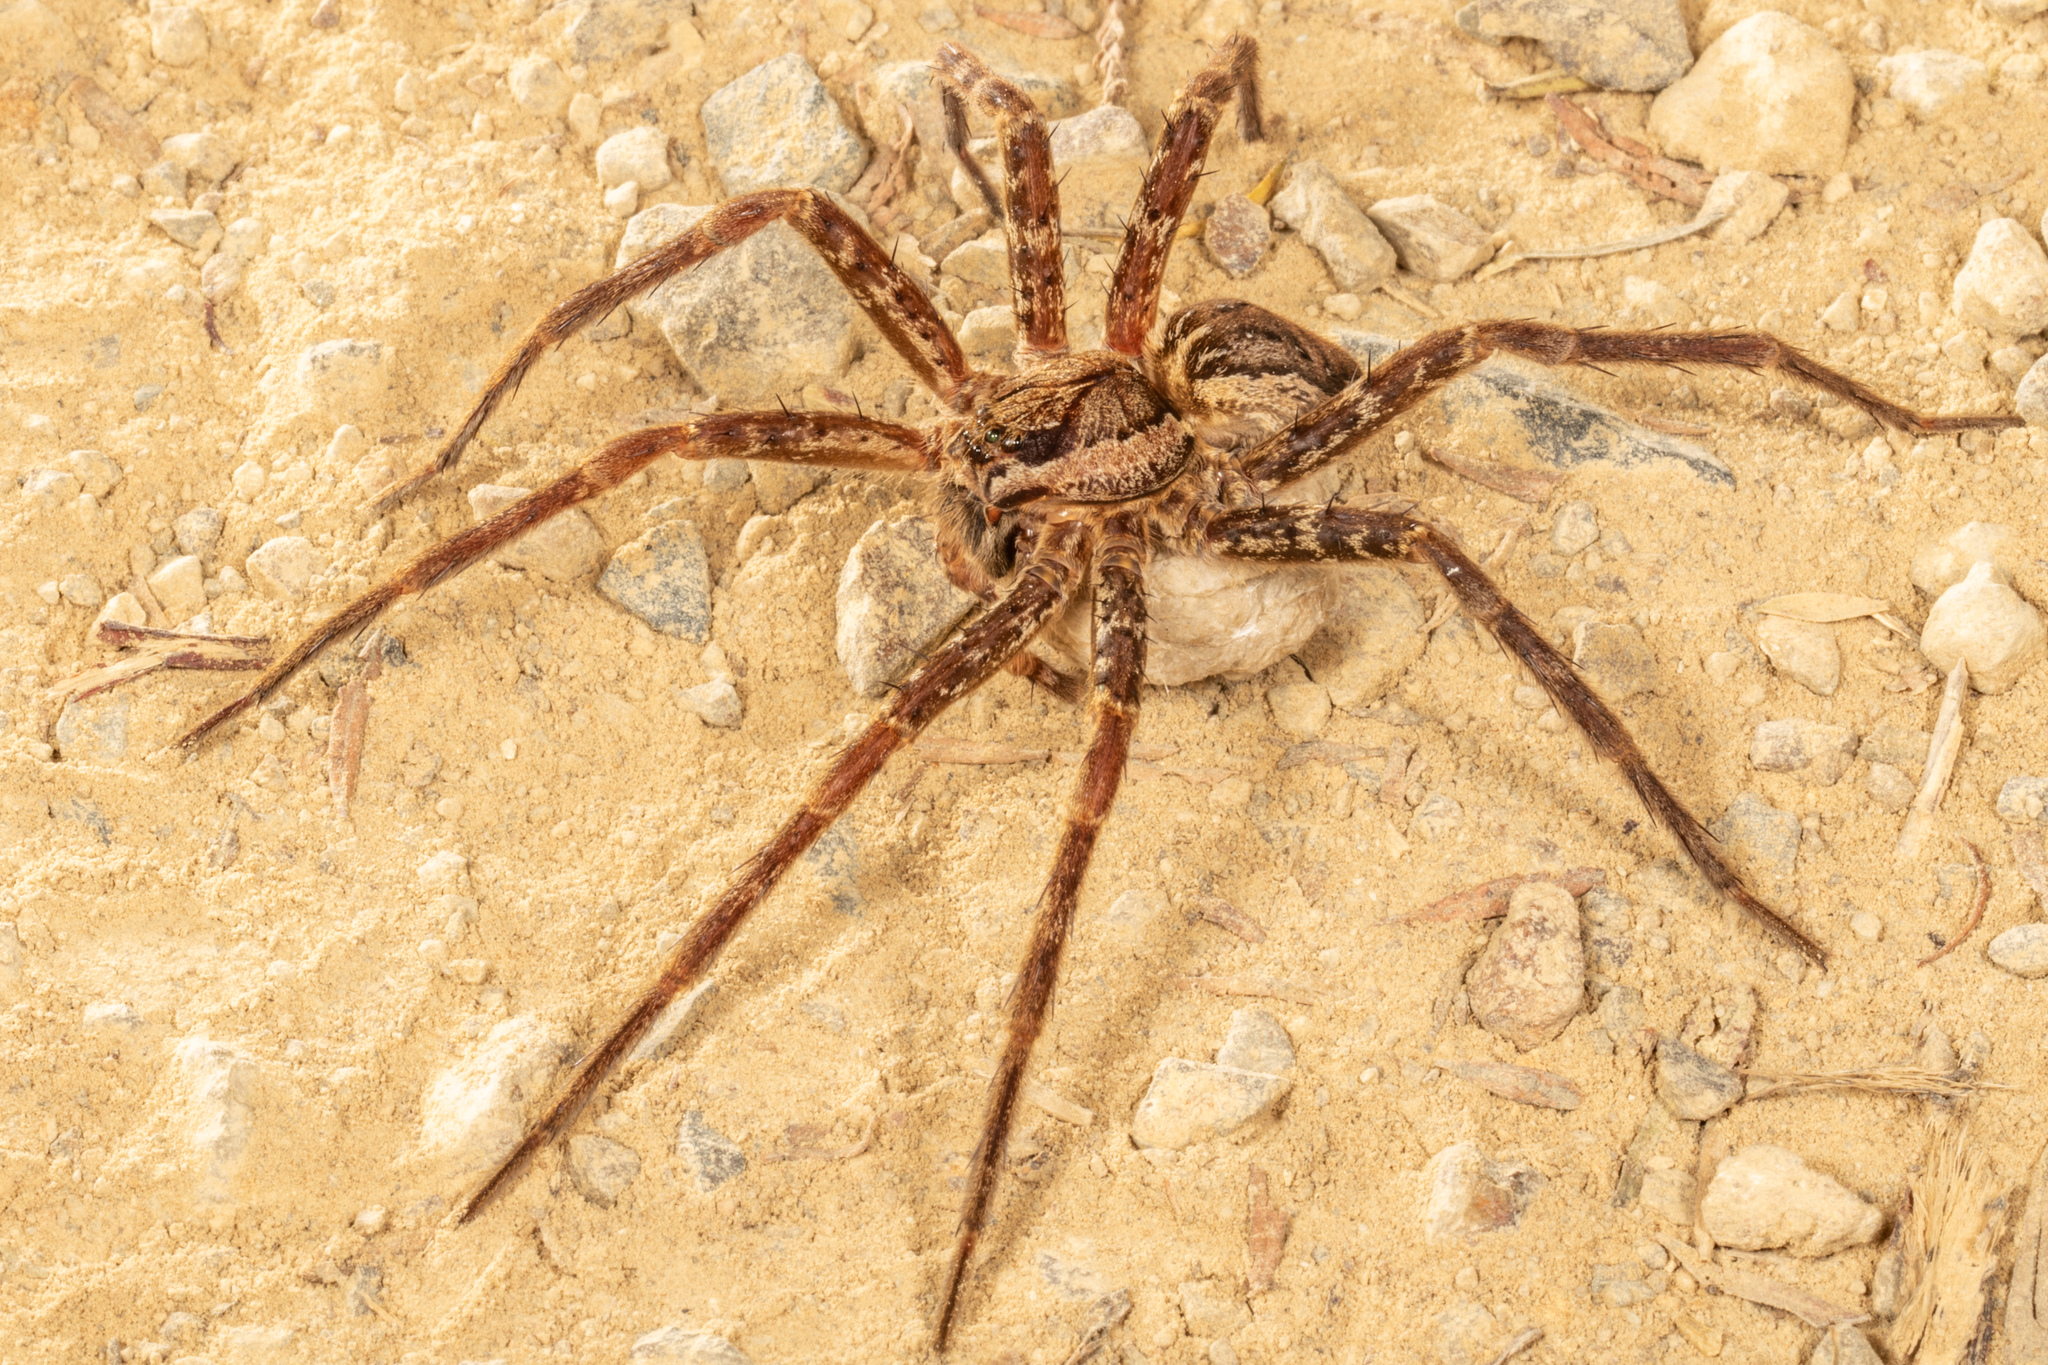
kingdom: Animalia
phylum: Arthropoda
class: Arachnida
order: Araneae
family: Pisauridae
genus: Dolomedes
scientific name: Dolomedes dondalei
